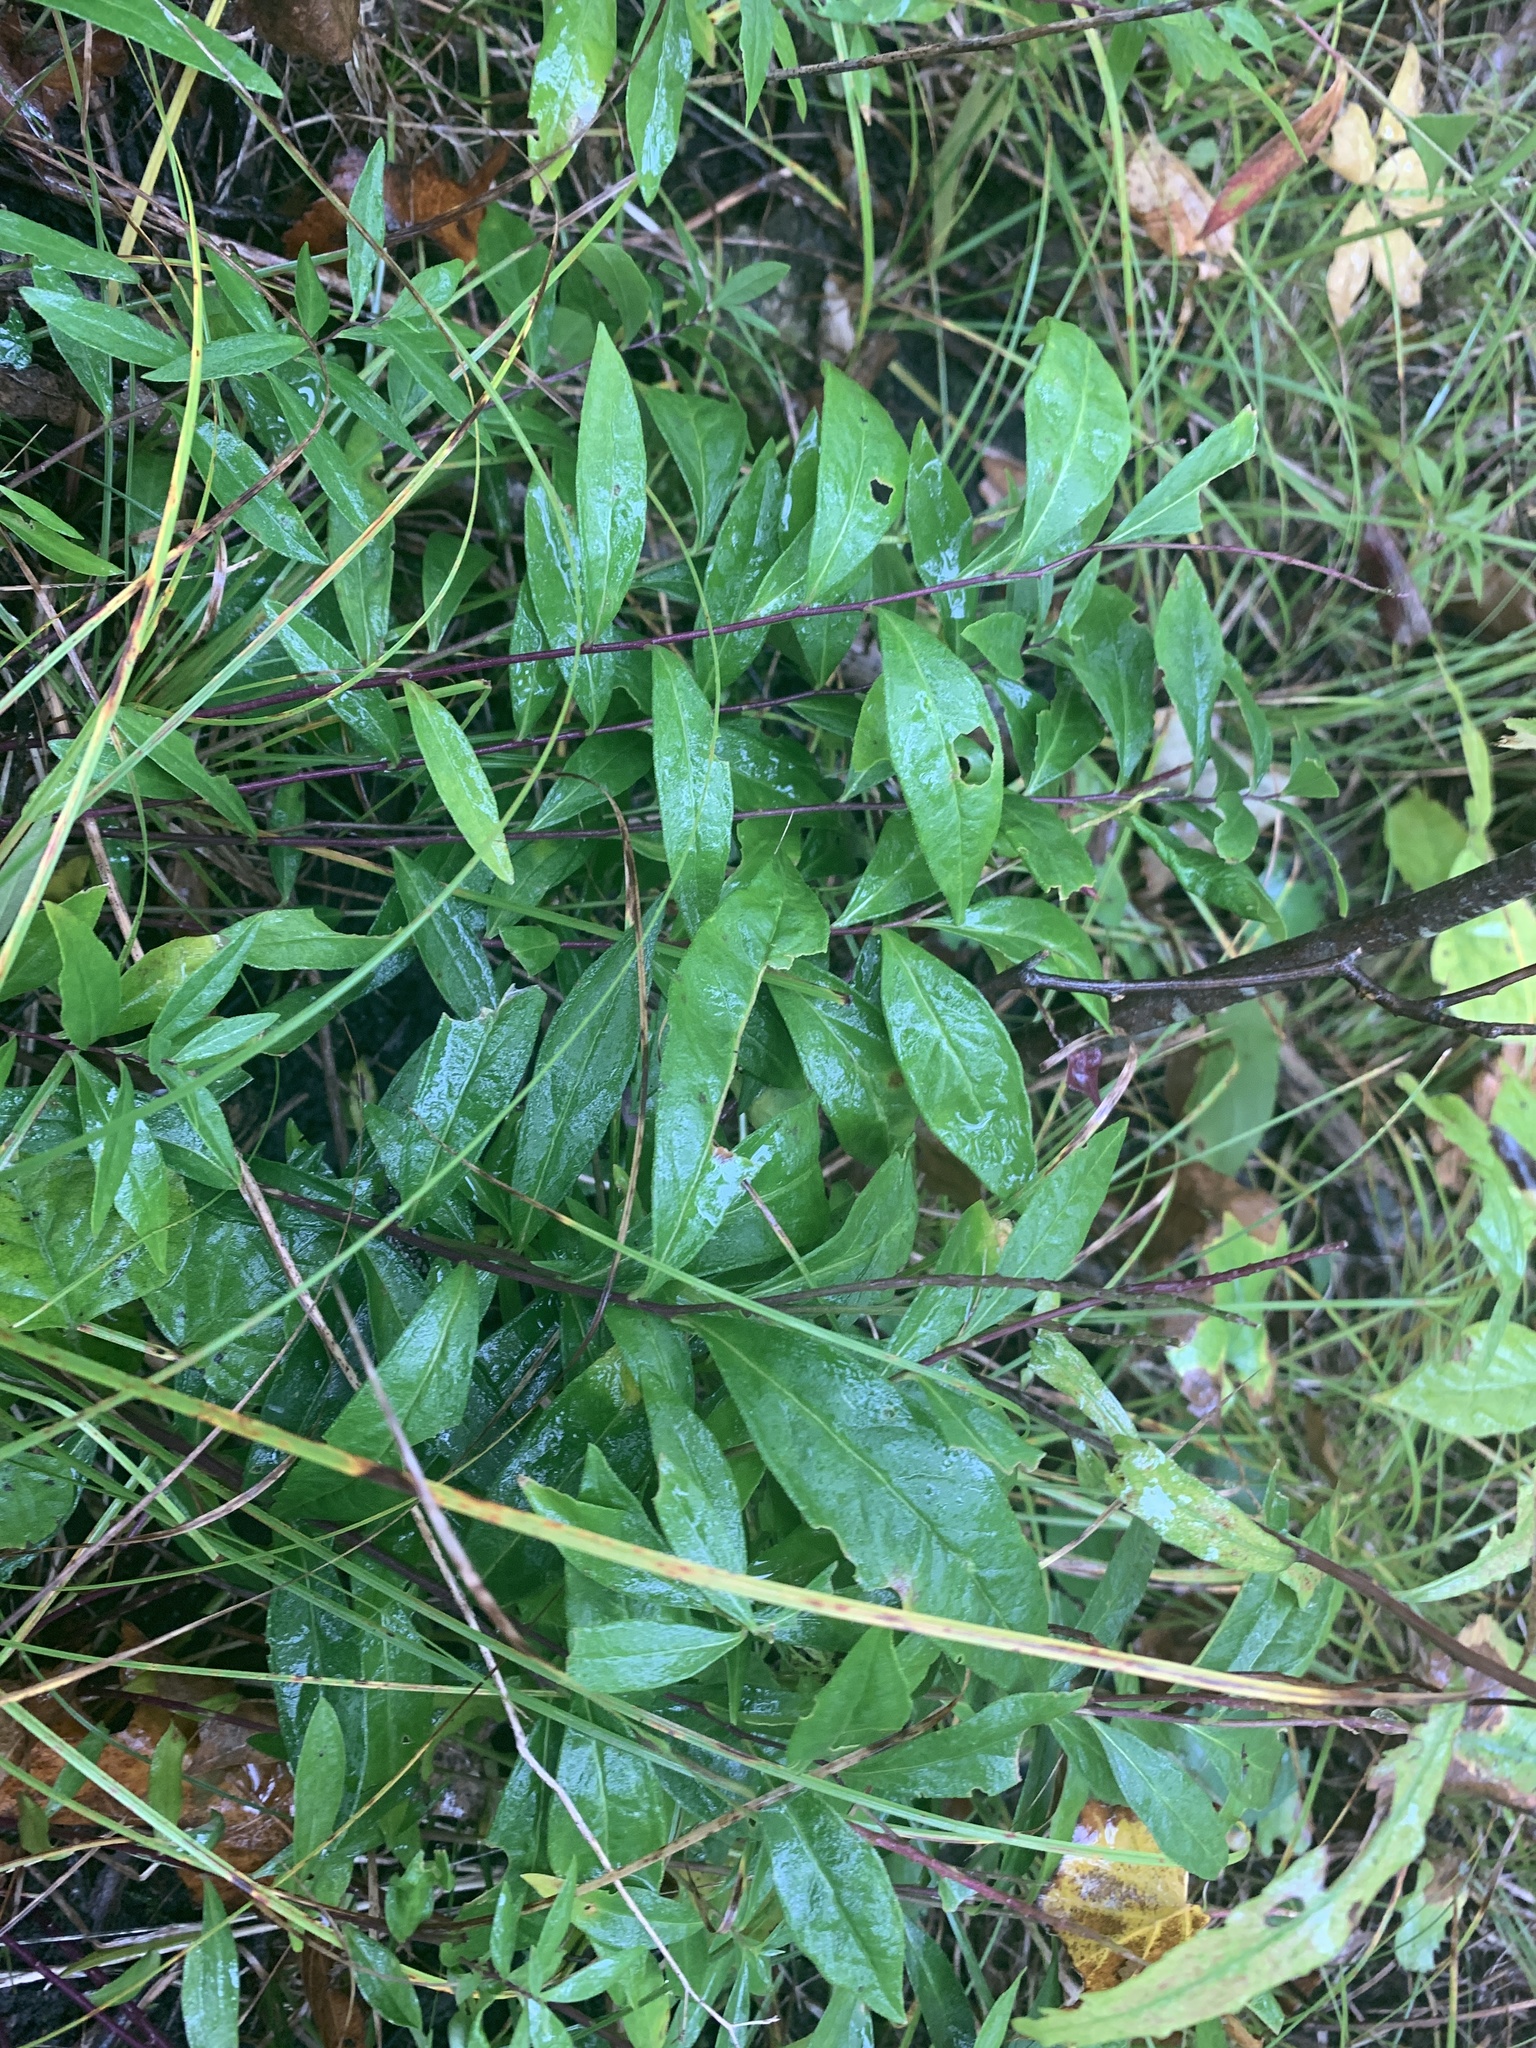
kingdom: Plantae
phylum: Tracheophyta
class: Magnoliopsida
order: Fabales
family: Polygalaceae
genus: Polygala
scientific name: Polygala senega
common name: Seneca snakeroot
